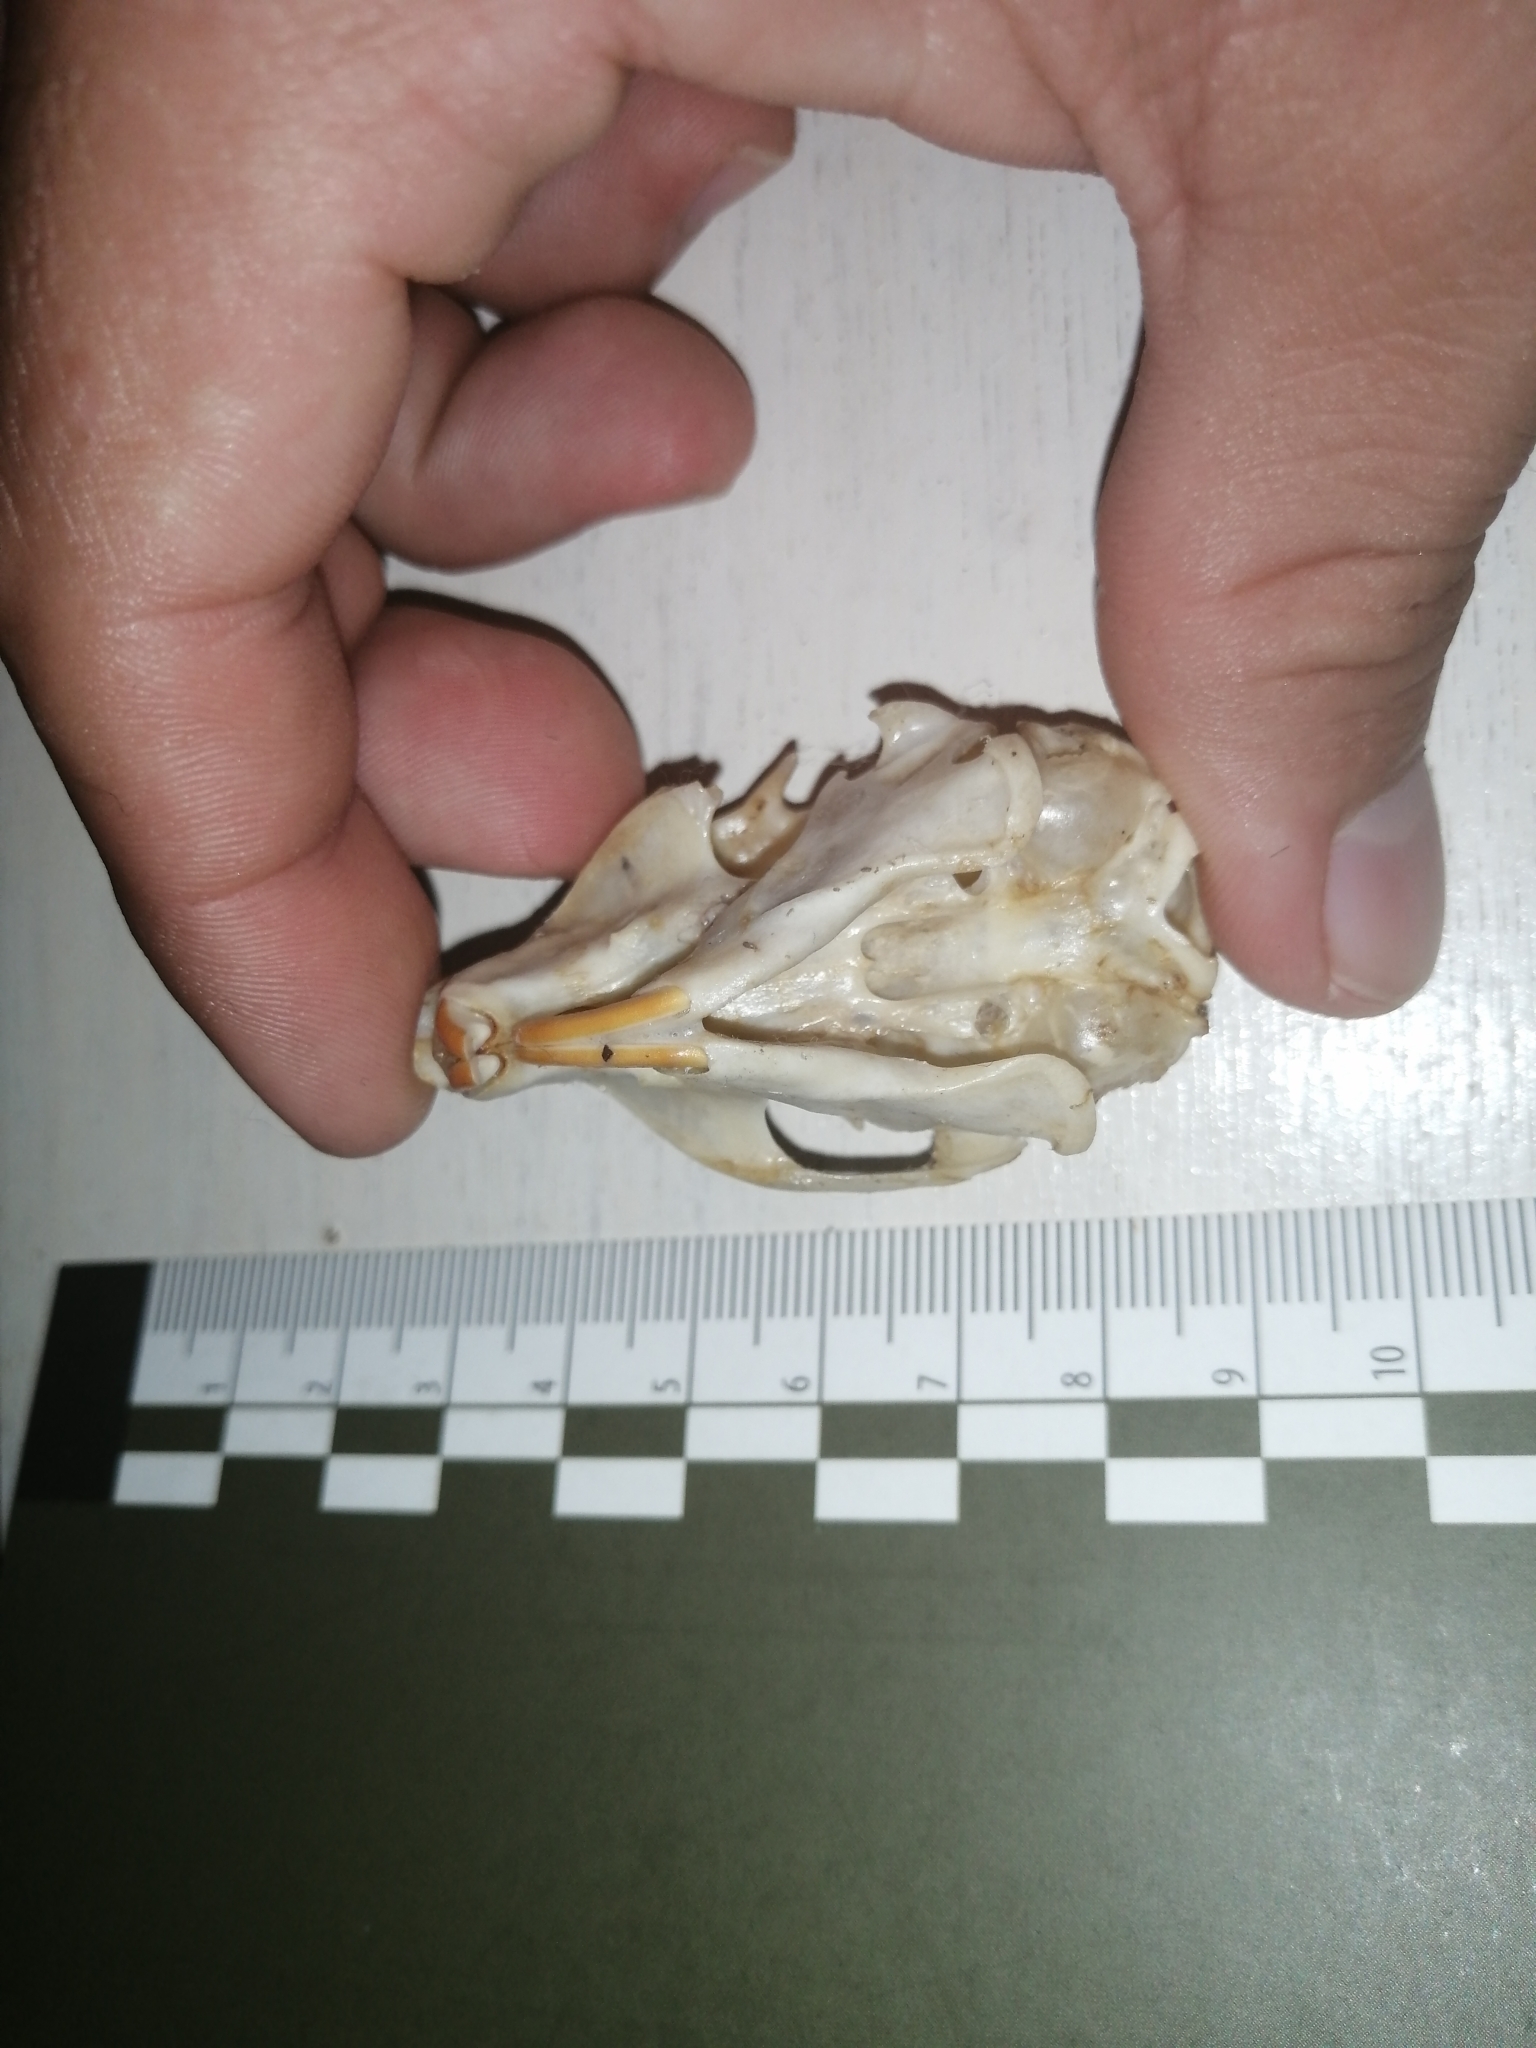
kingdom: Animalia
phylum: Chordata
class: Mammalia
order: Rodentia
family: Sciuridae
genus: Sciurus
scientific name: Sciurus yucatanensis
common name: Yucatan squirrel
